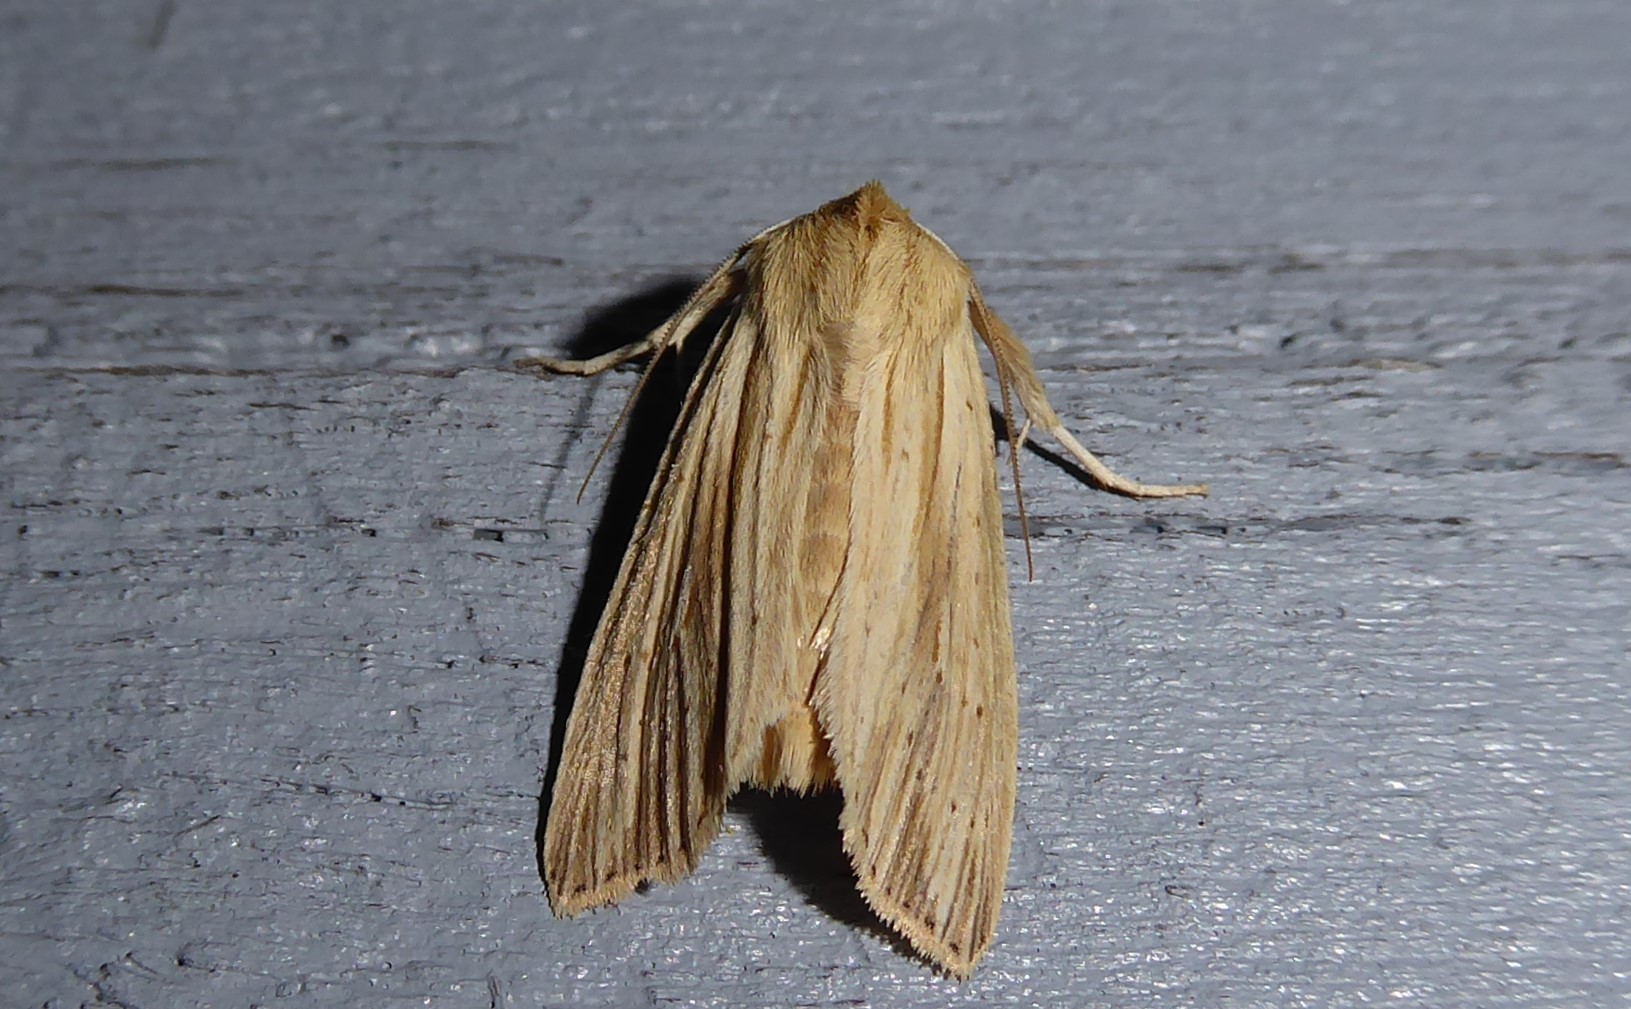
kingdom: Animalia
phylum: Arthropoda
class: Insecta
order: Lepidoptera
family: Noctuidae
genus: Ichneutica
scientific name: Ichneutica semivittata
